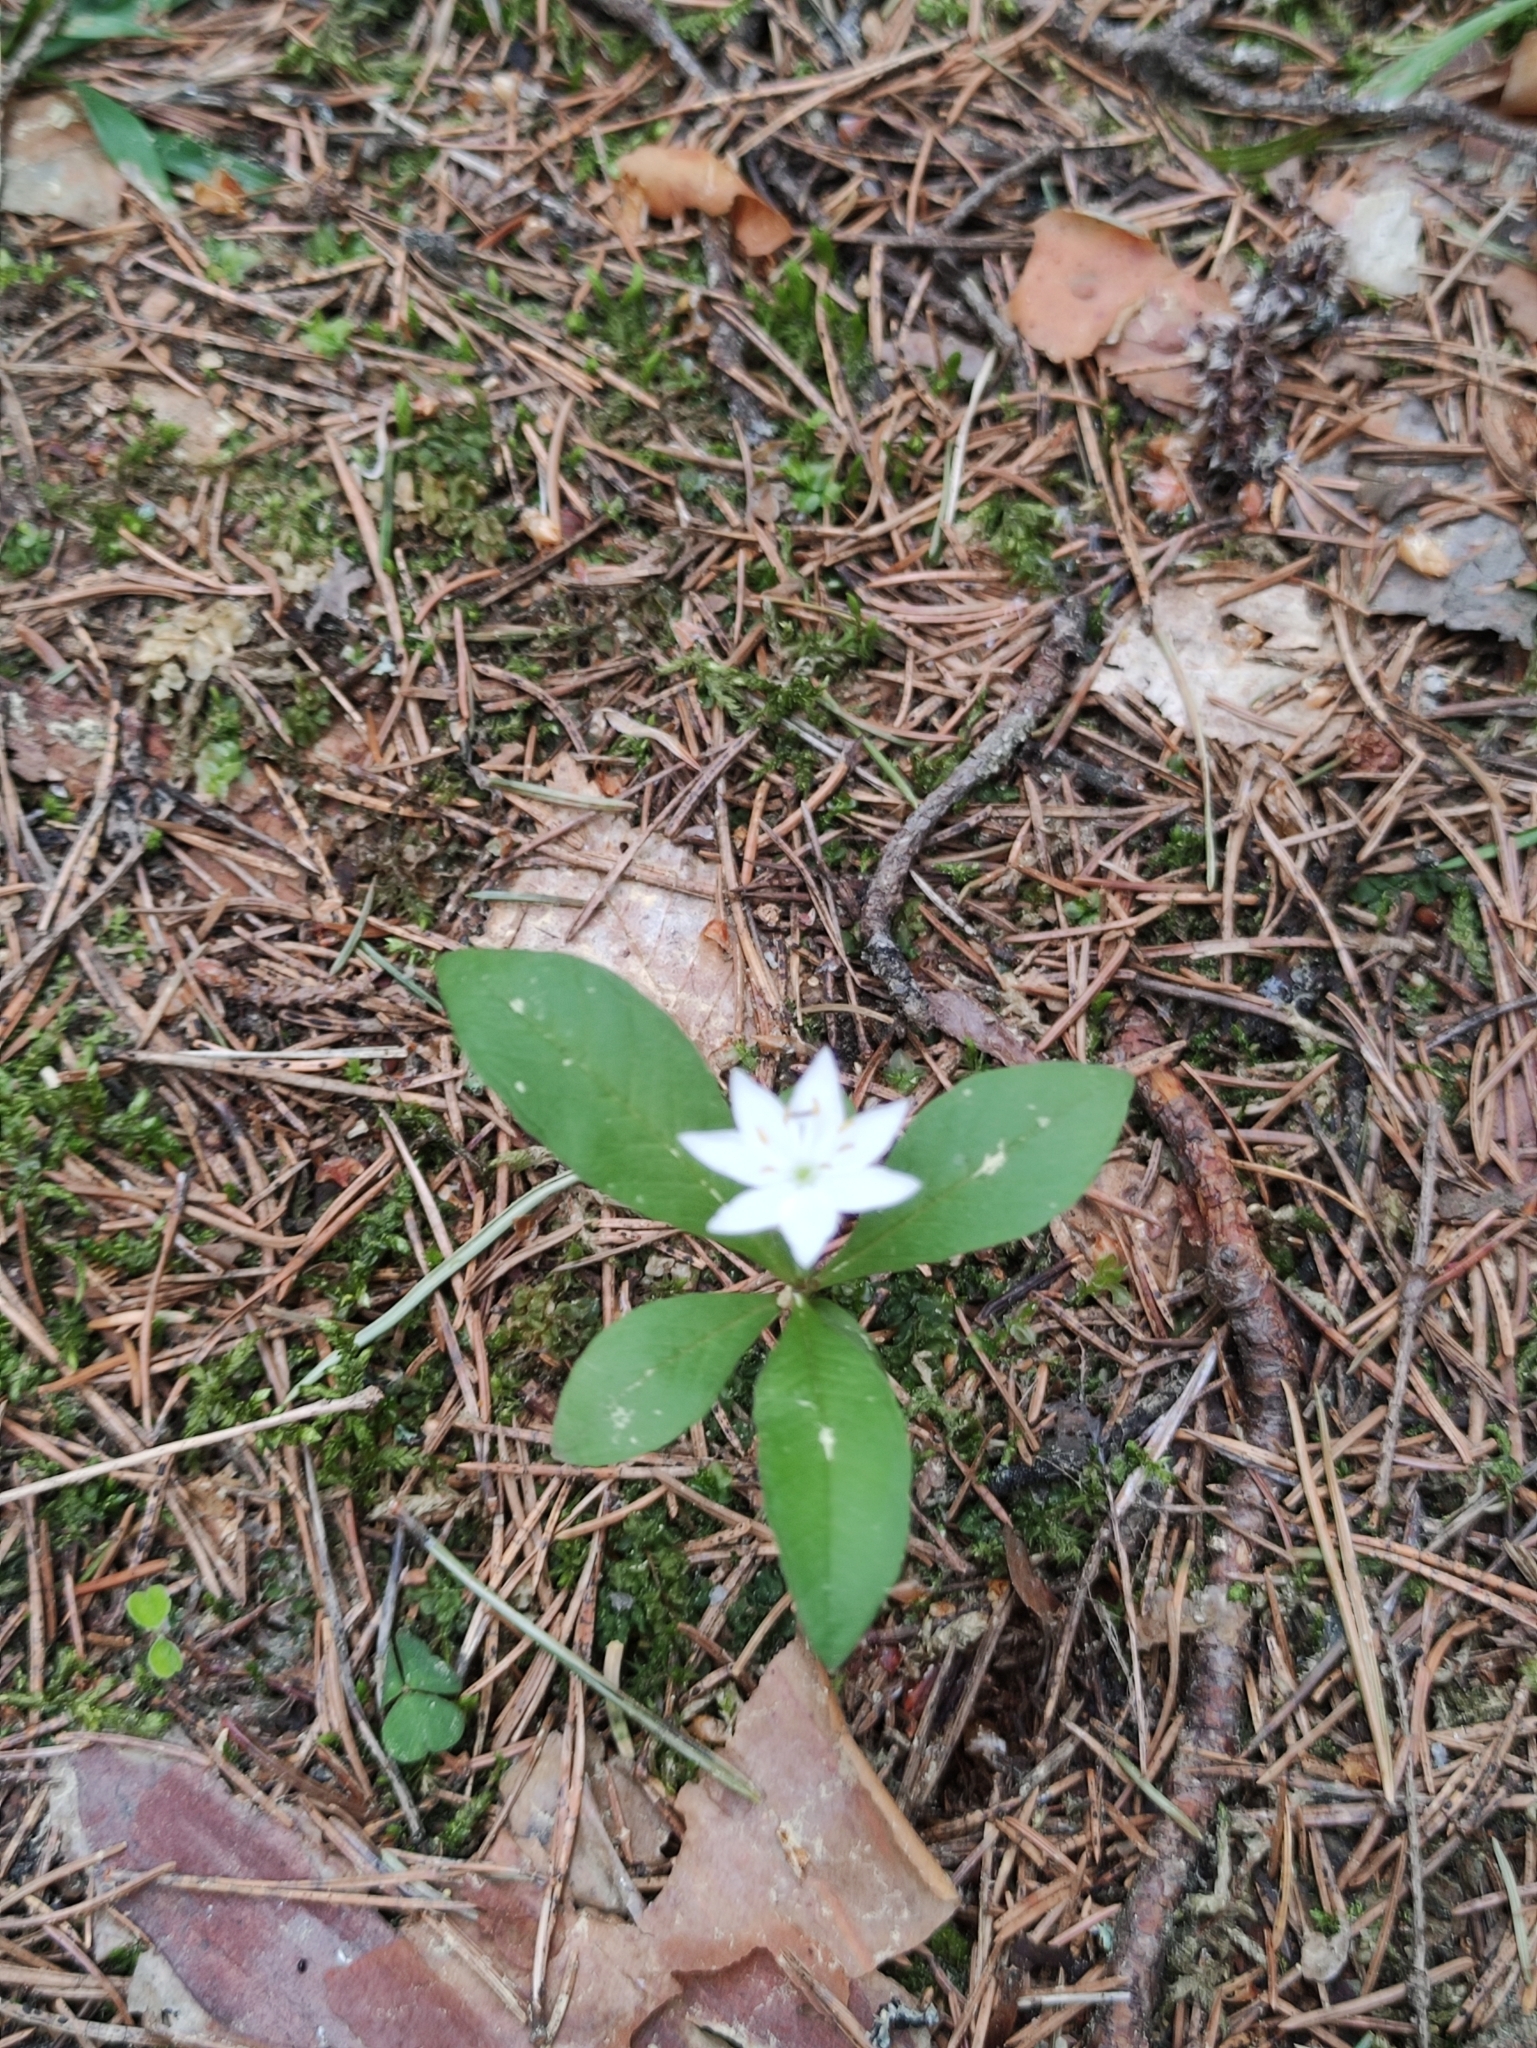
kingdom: Plantae
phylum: Tracheophyta
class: Magnoliopsida
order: Ericales
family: Primulaceae
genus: Lysimachia
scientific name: Lysimachia europaea
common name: Arctic starflower
